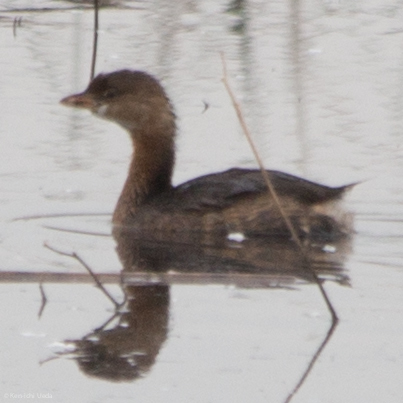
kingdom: Animalia
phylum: Chordata
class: Aves
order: Podicipediformes
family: Podicipedidae
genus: Podilymbus
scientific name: Podilymbus podiceps
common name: Pied-billed grebe
